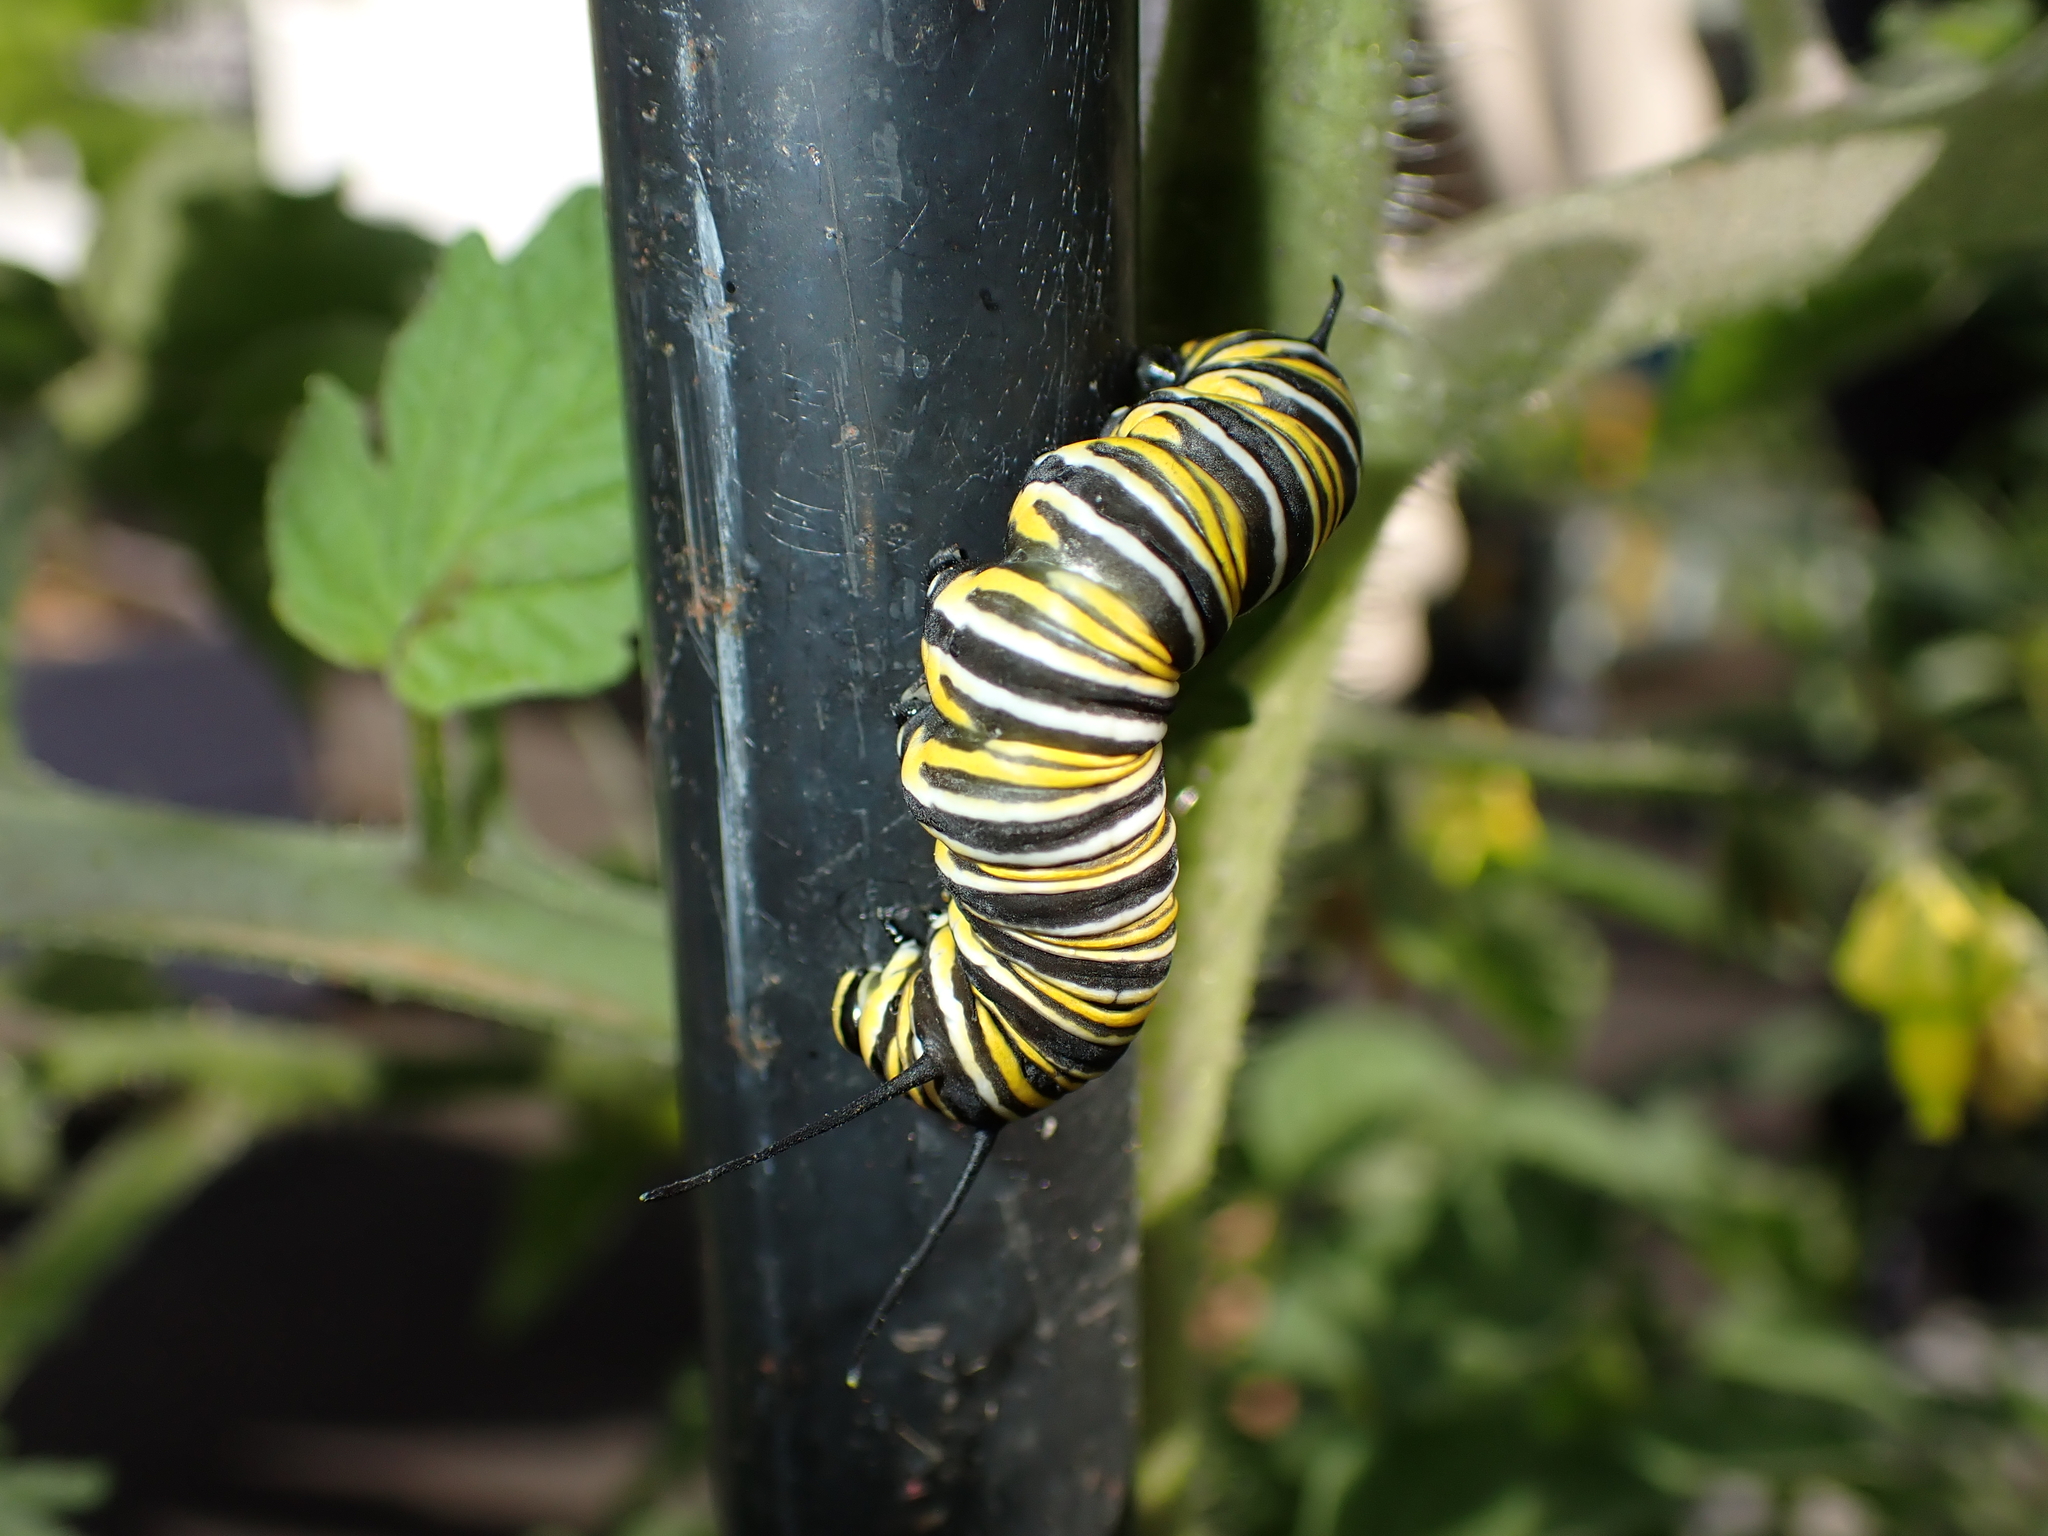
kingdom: Animalia
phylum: Arthropoda
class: Insecta
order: Lepidoptera
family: Nymphalidae
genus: Danaus
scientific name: Danaus plexippus
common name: Monarch
